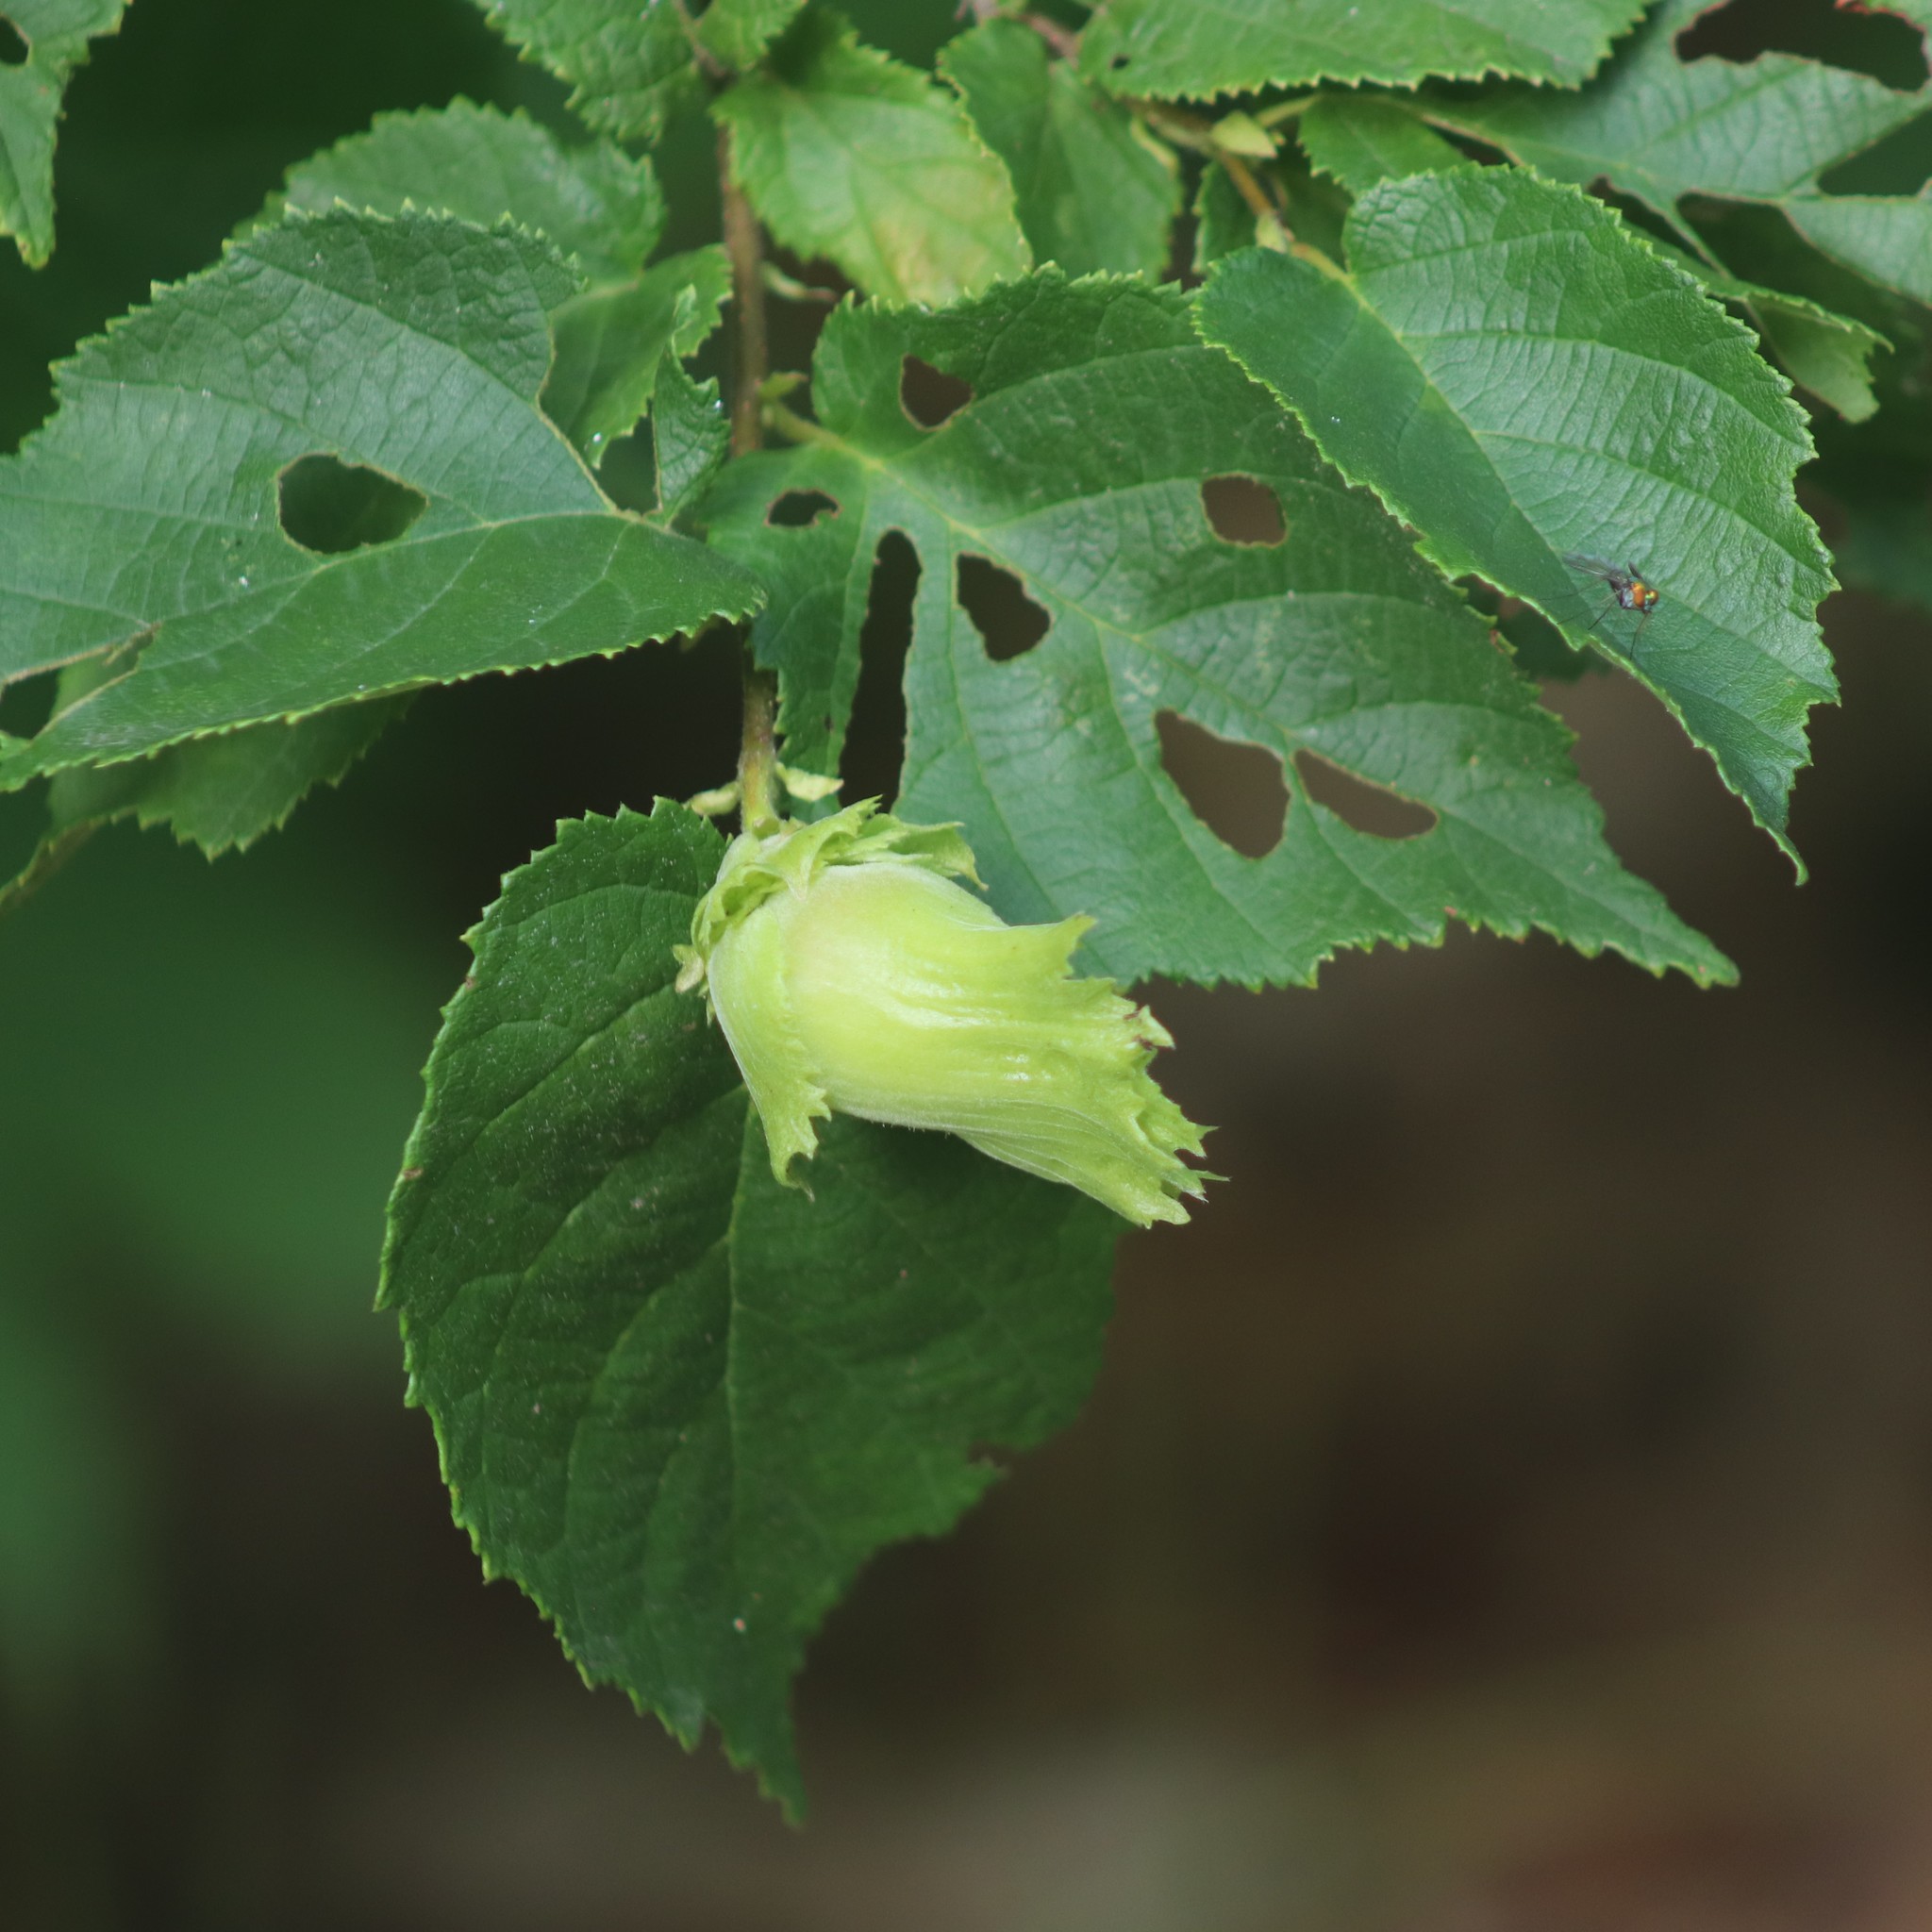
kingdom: Plantae
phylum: Tracheophyta
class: Magnoliopsida
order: Fagales
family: Betulaceae
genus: Corylus
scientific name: Corylus americana
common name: American hazel
